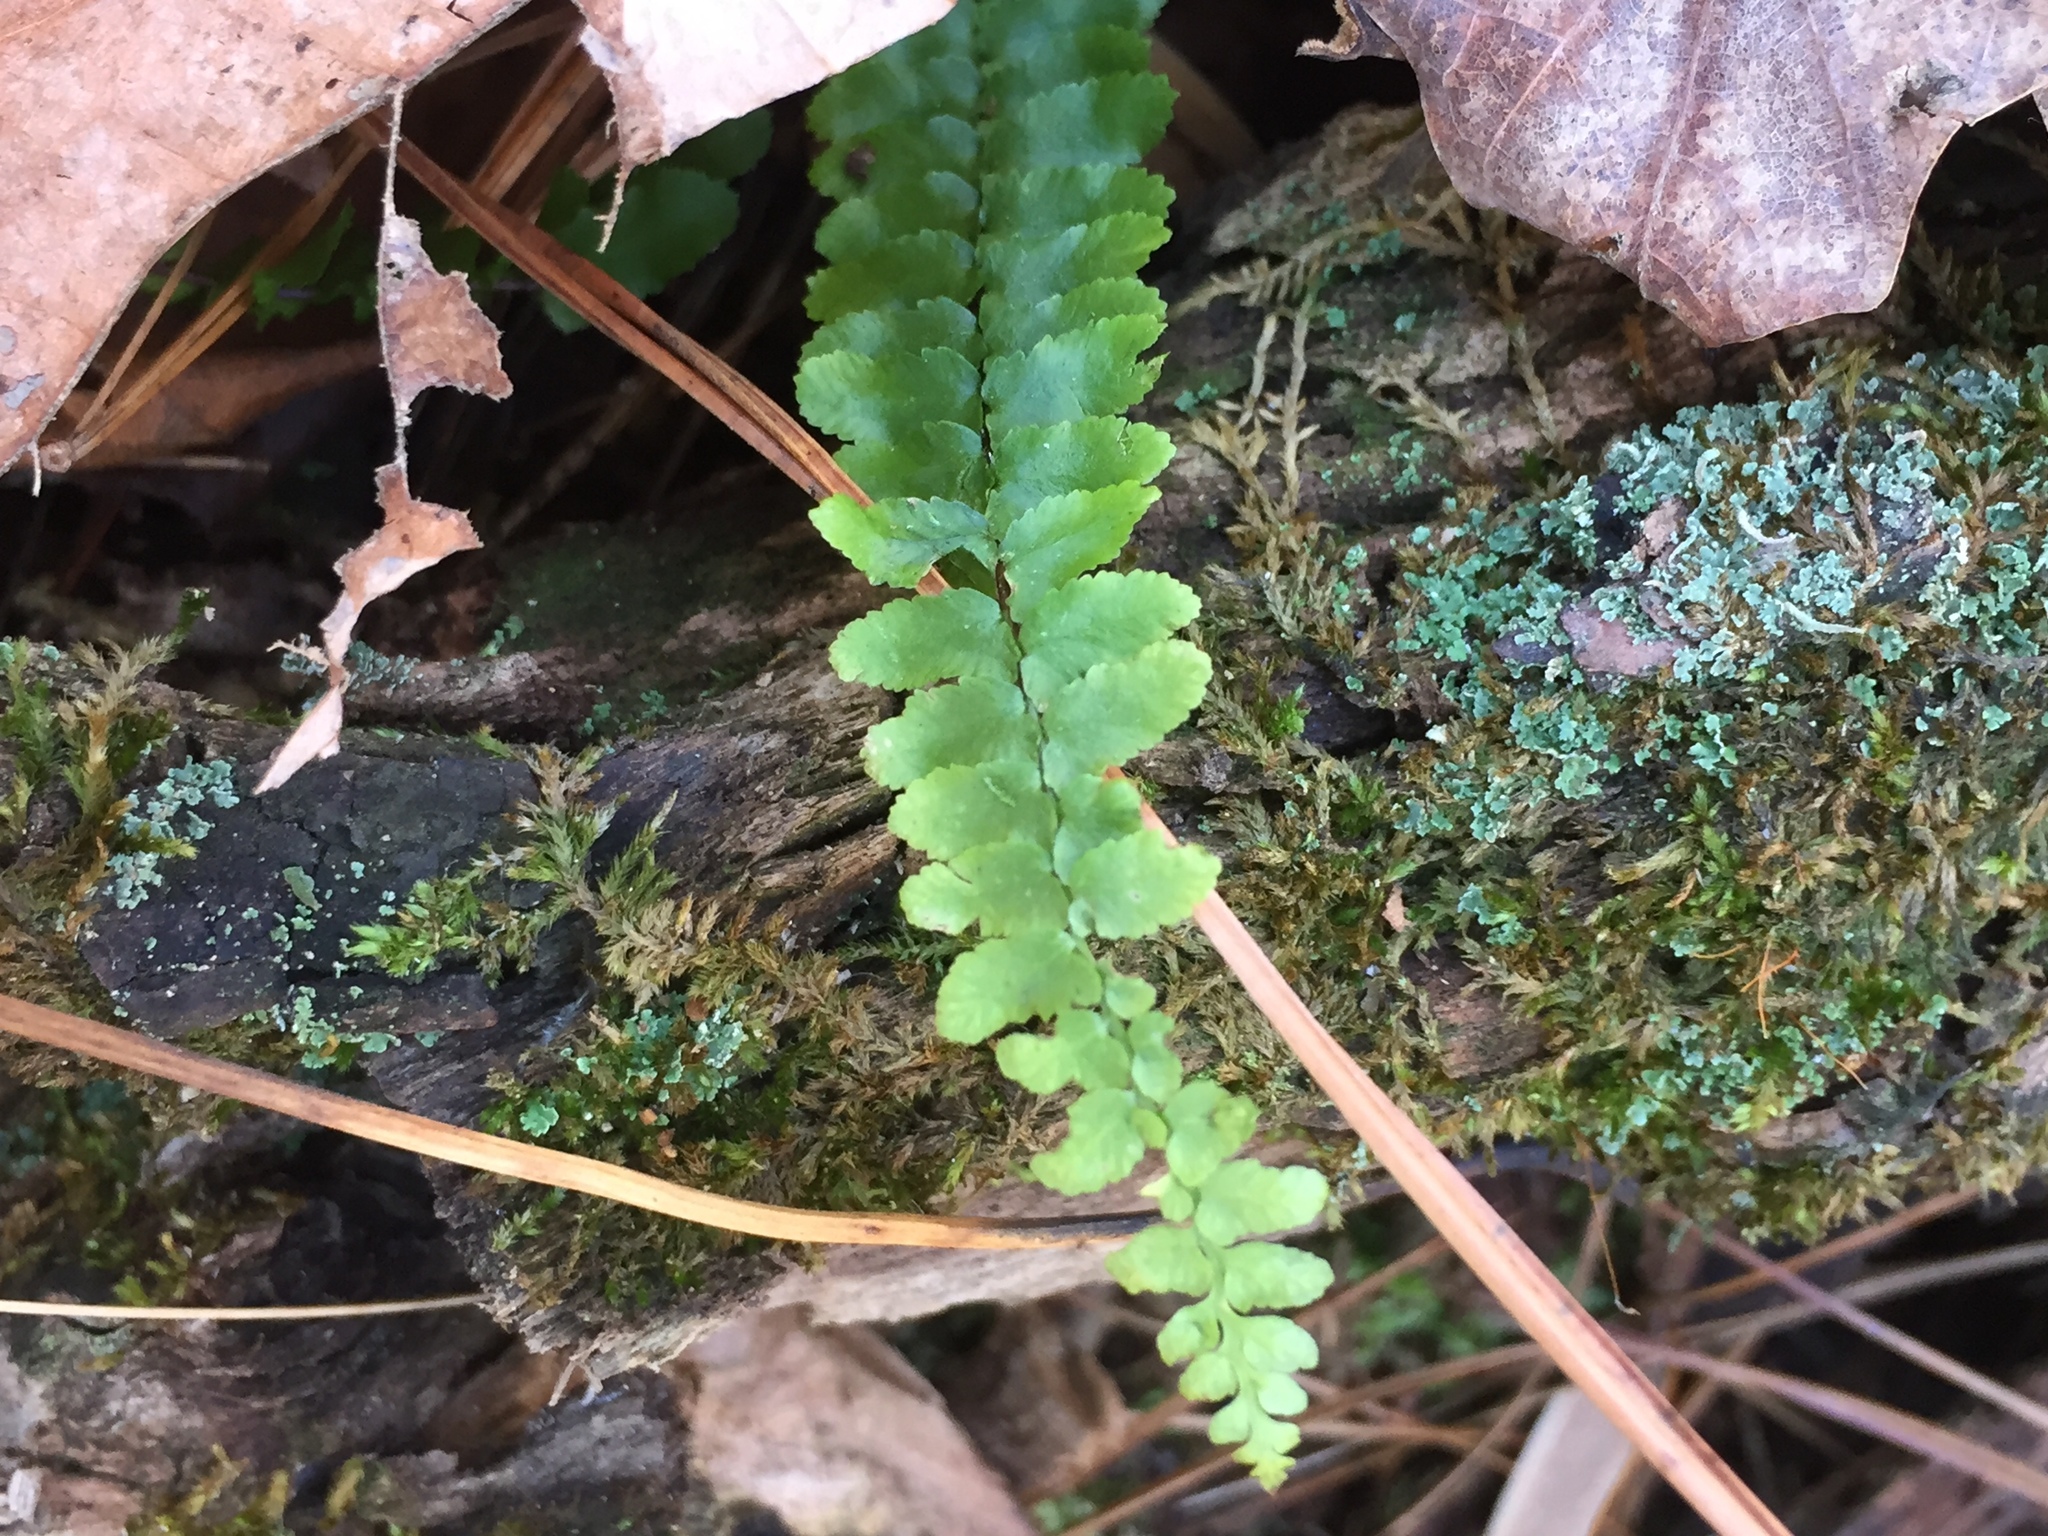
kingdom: Plantae
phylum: Tracheophyta
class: Polypodiopsida
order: Polypodiales
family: Aspleniaceae
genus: Asplenium
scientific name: Asplenium platyneuron
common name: Ebony spleenwort
